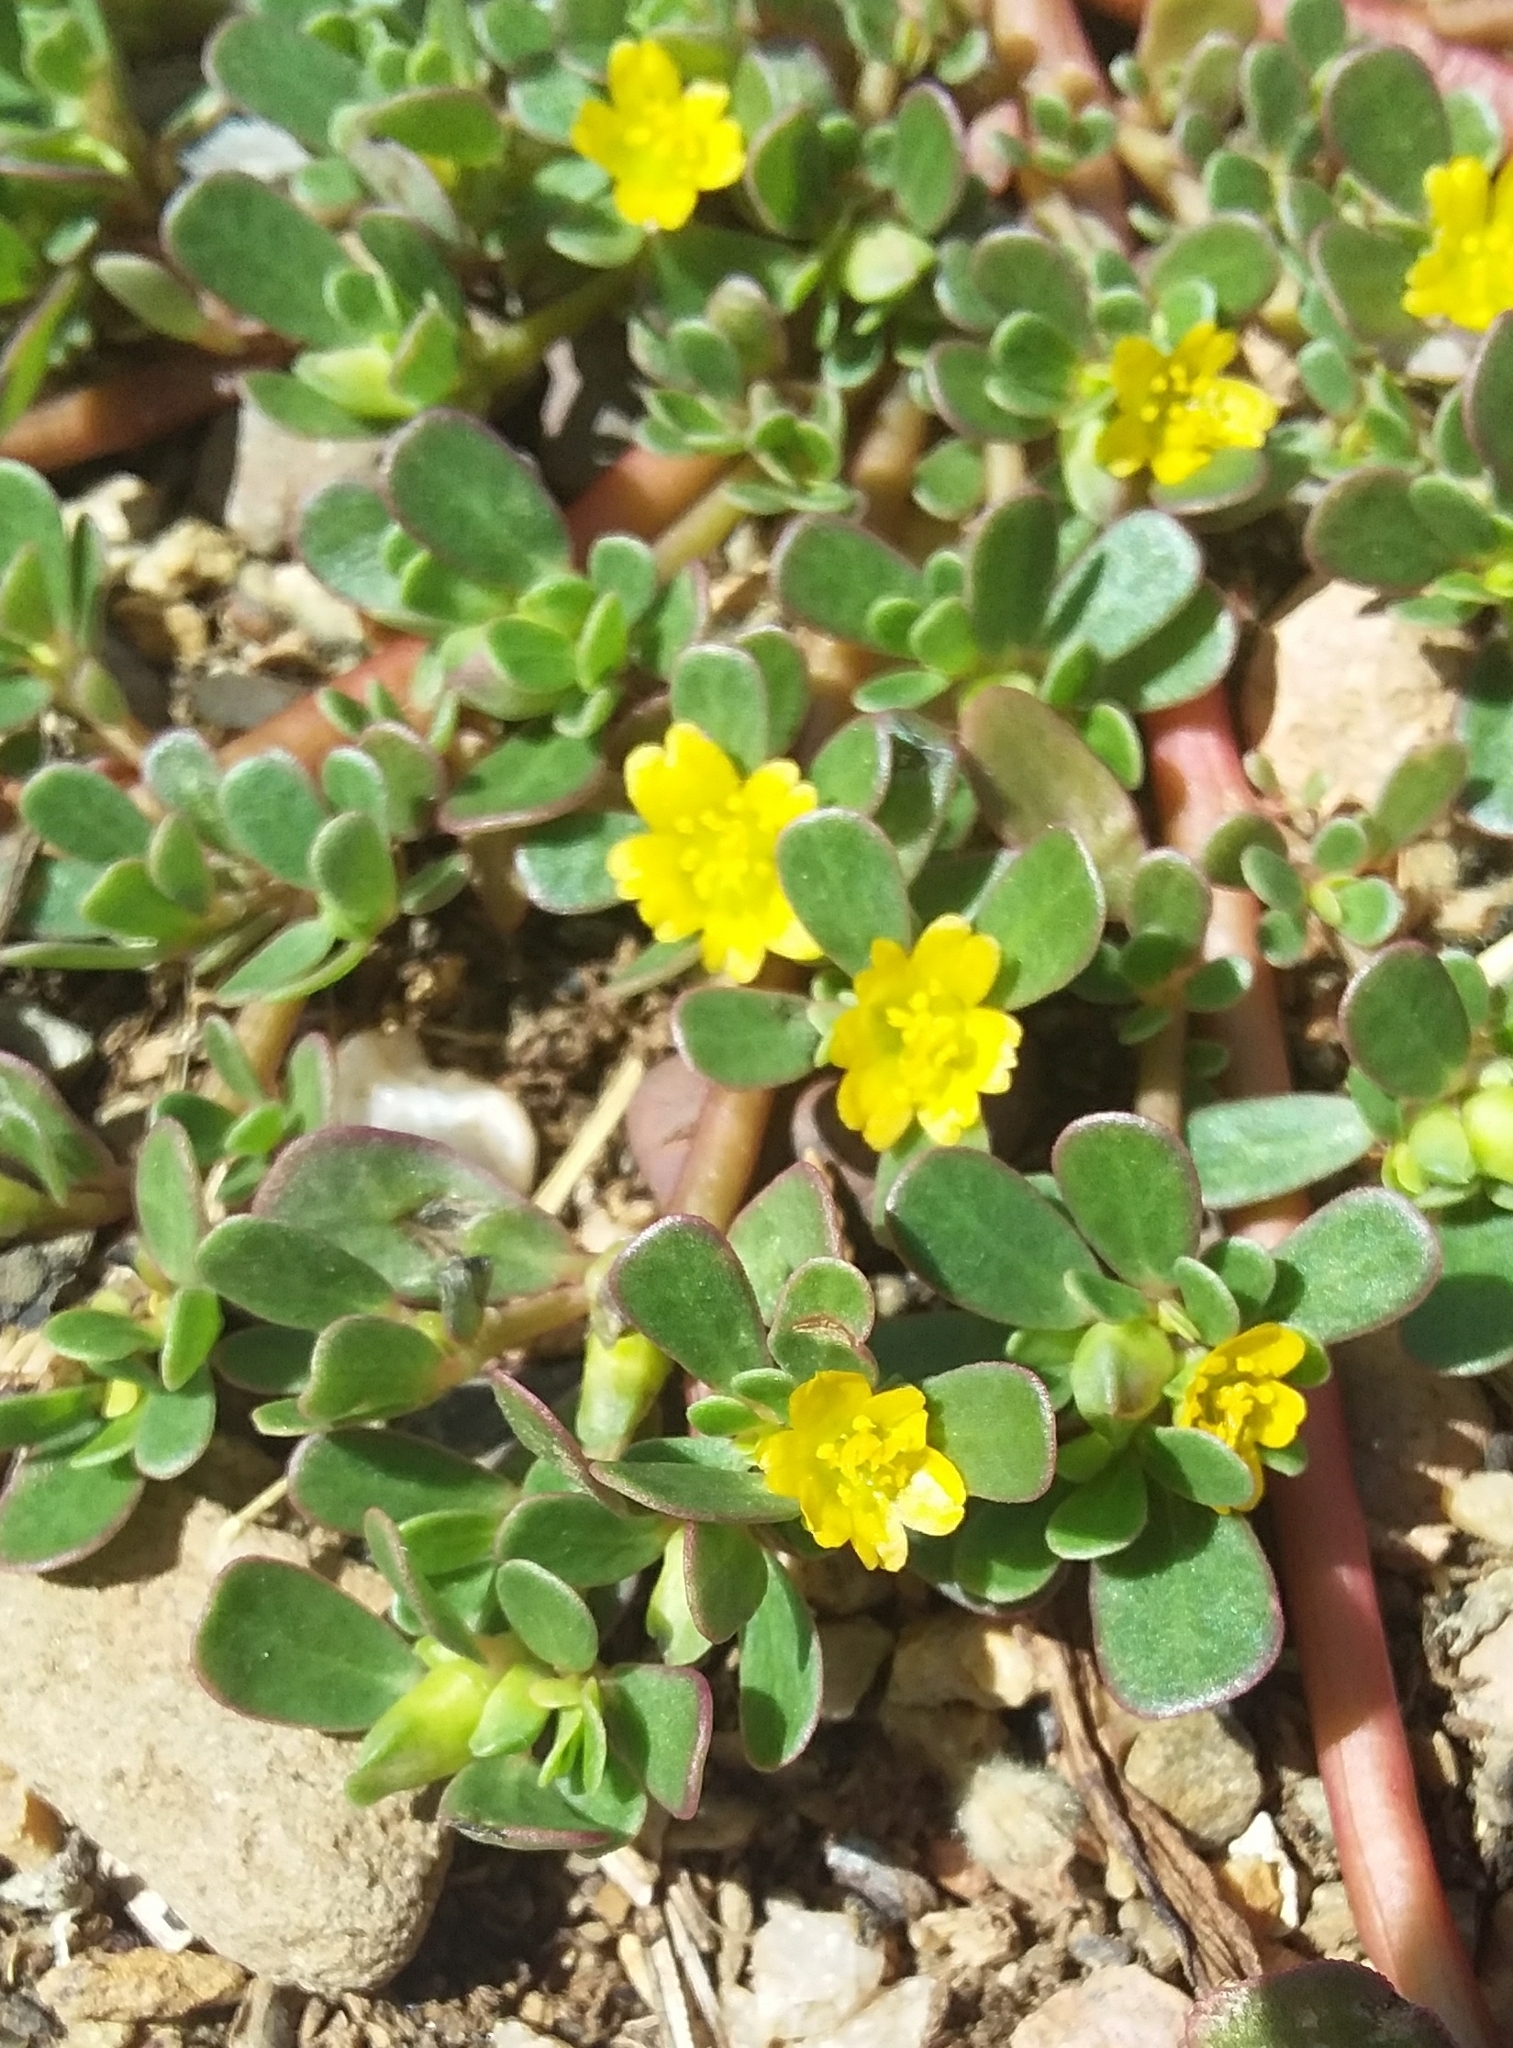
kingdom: Plantae
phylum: Tracheophyta
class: Magnoliopsida
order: Caryophyllales
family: Portulacaceae
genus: Portulaca
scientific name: Portulaca oleracea
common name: Common purslane
